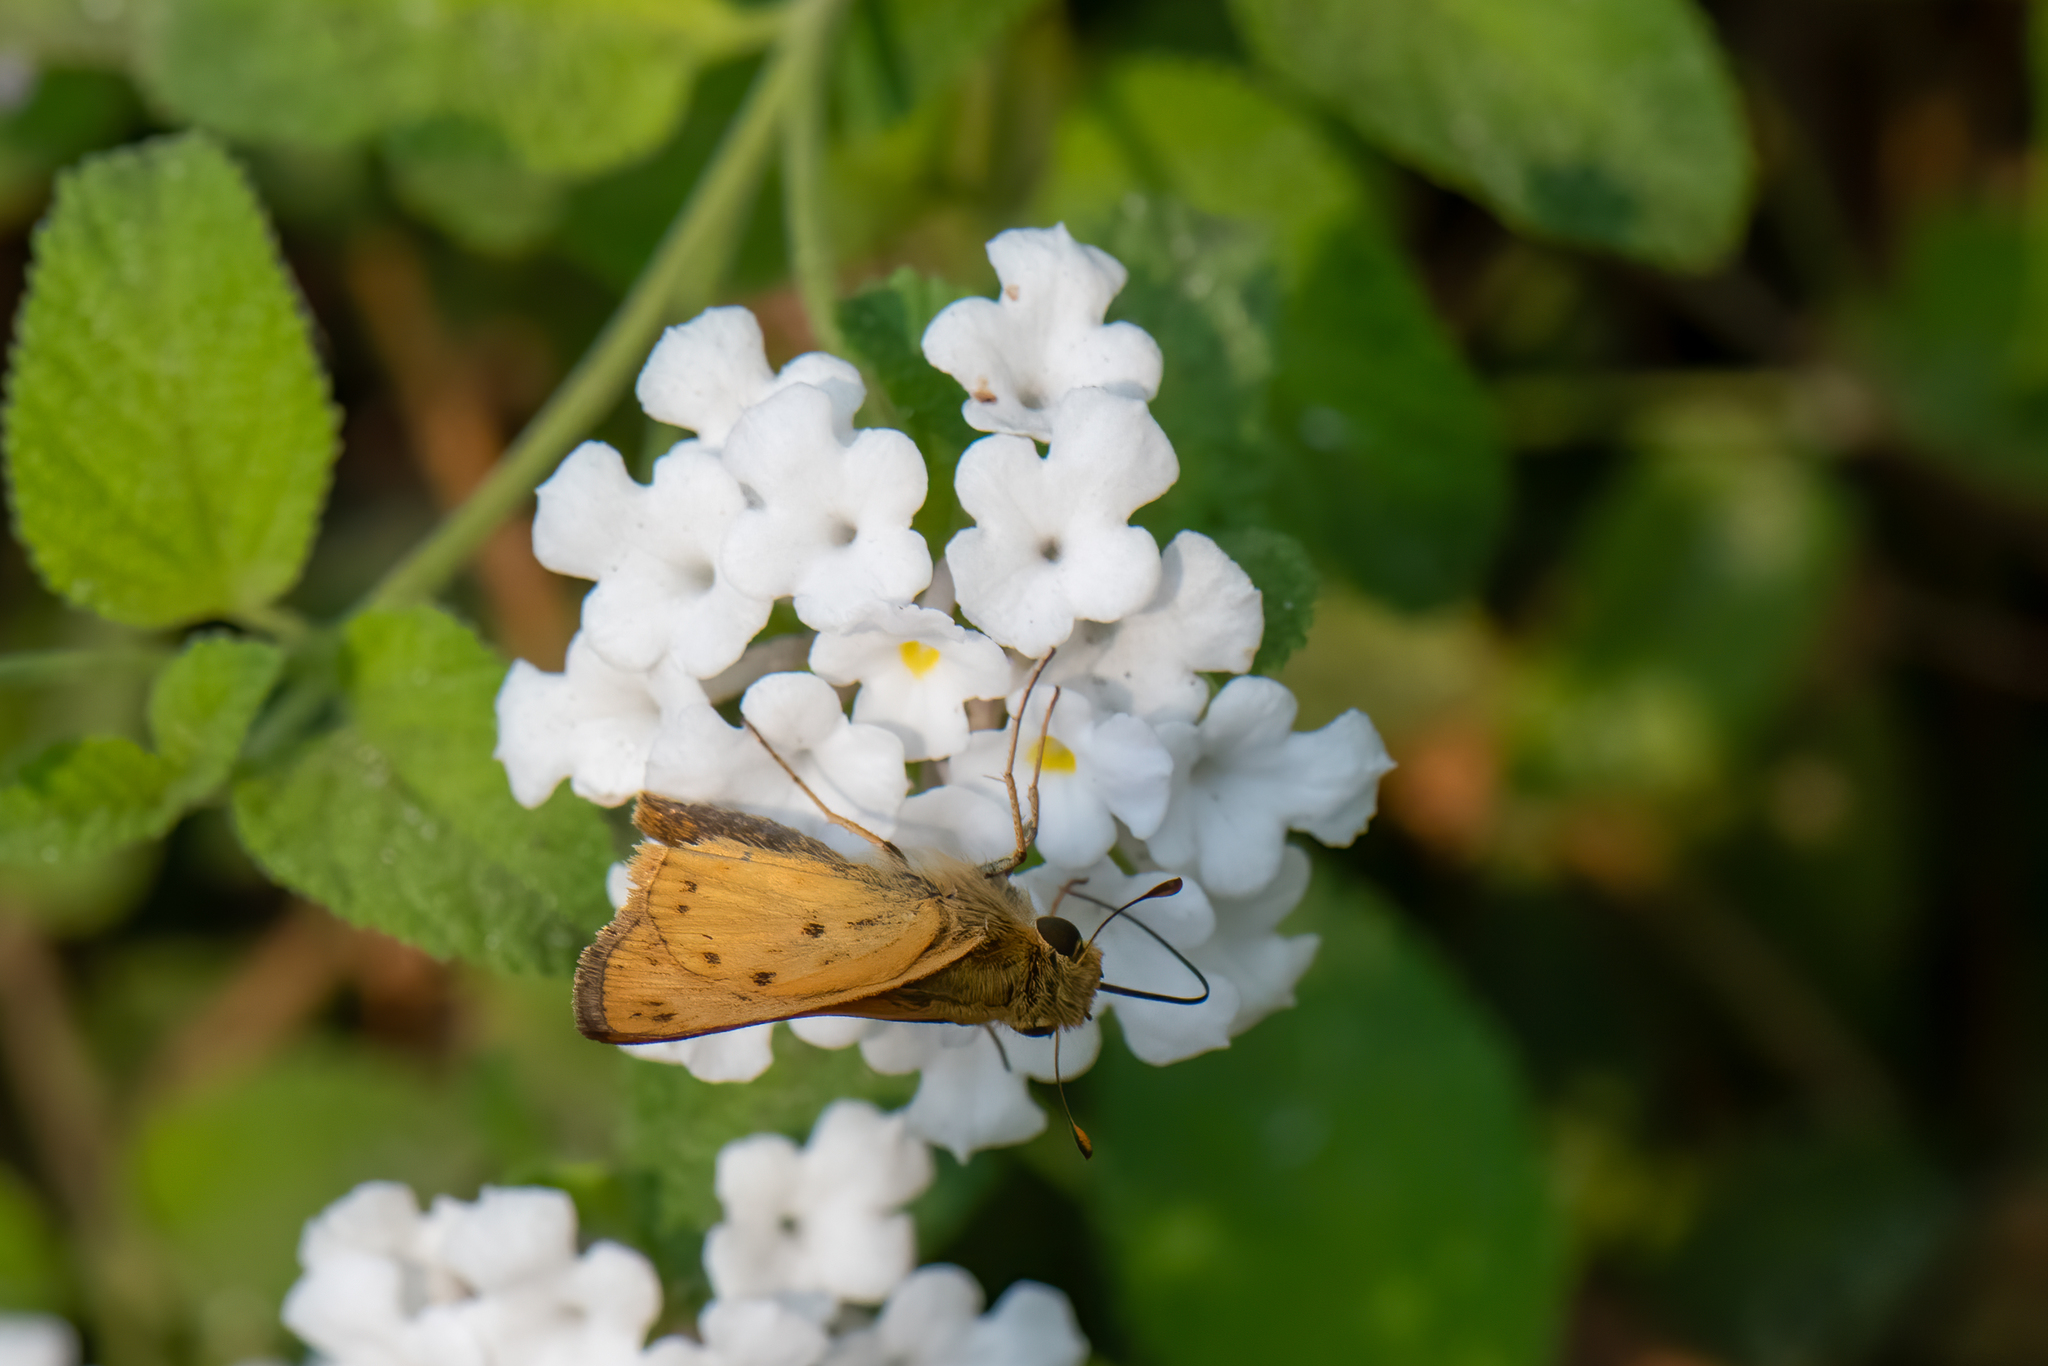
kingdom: Animalia
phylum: Arthropoda
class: Insecta
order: Lepidoptera
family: Hesperiidae
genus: Hylephila
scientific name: Hylephila phyleus
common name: Fiery skipper
